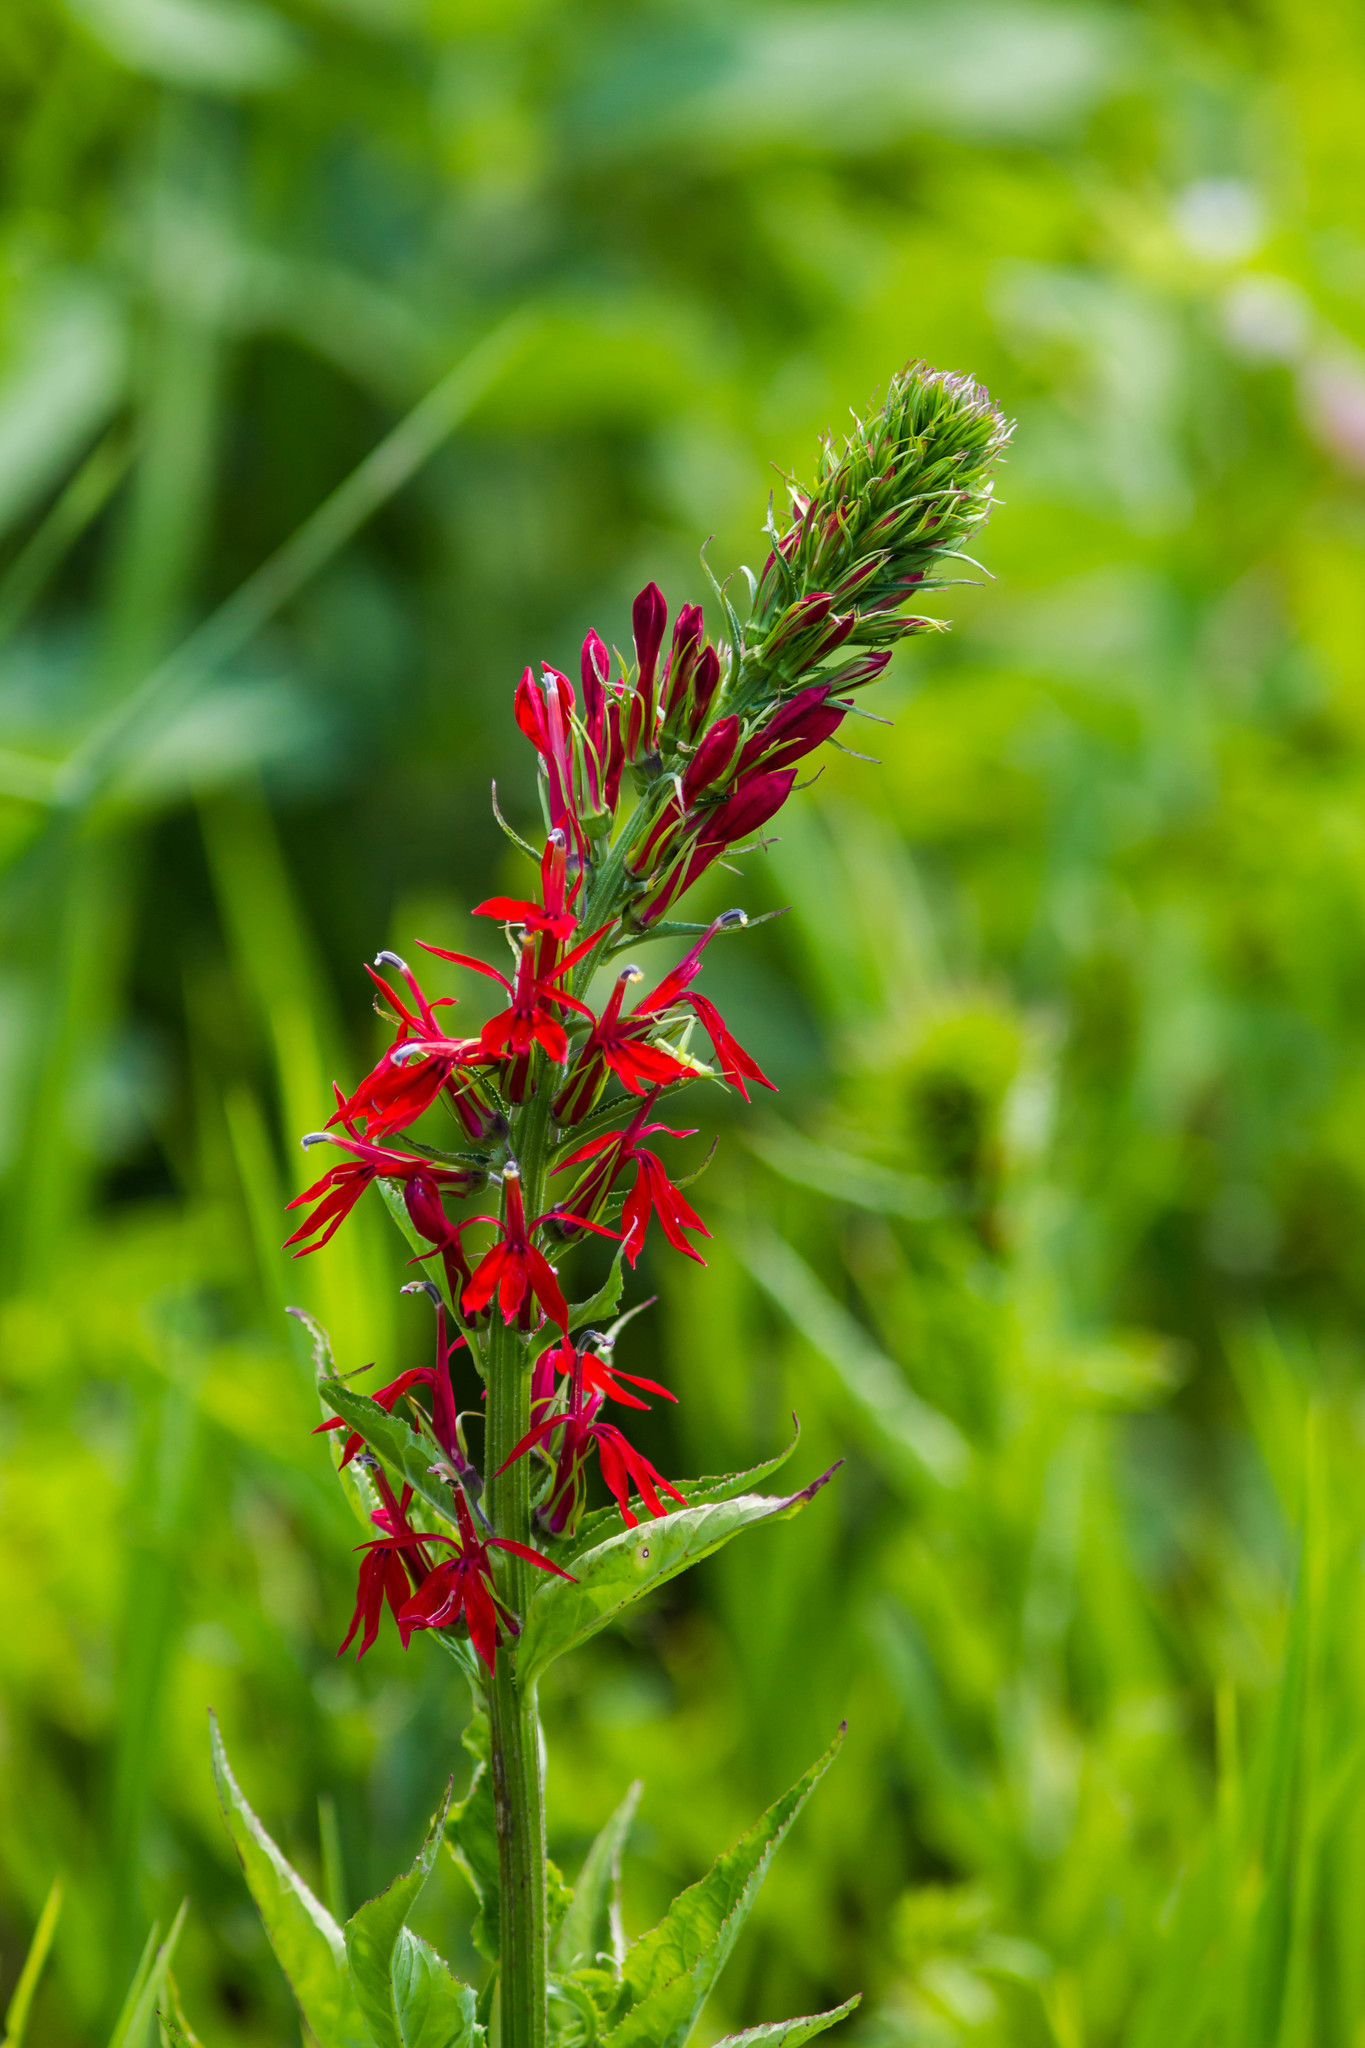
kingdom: Plantae
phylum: Tracheophyta
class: Magnoliopsida
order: Asterales
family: Campanulaceae
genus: Lobelia
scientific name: Lobelia cardinalis
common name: Cardinal flower
